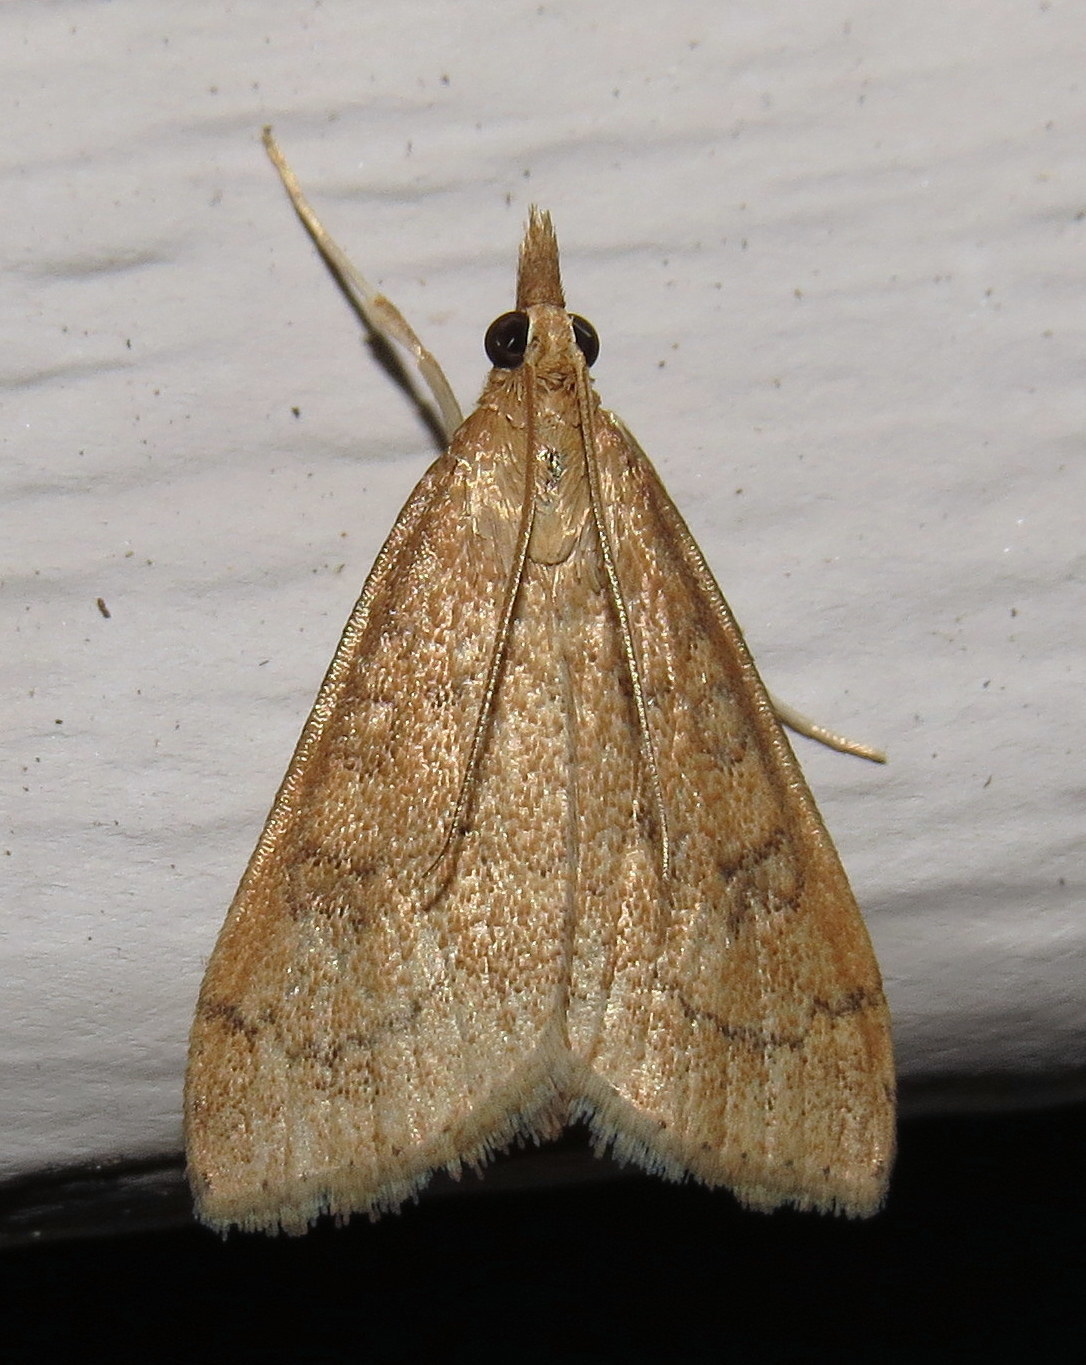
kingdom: Animalia
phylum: Arthropoda
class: Insecta
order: Lepidoptera
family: Crambidae
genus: Udea
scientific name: Udea rubigalis
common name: Celery leaftier moth
